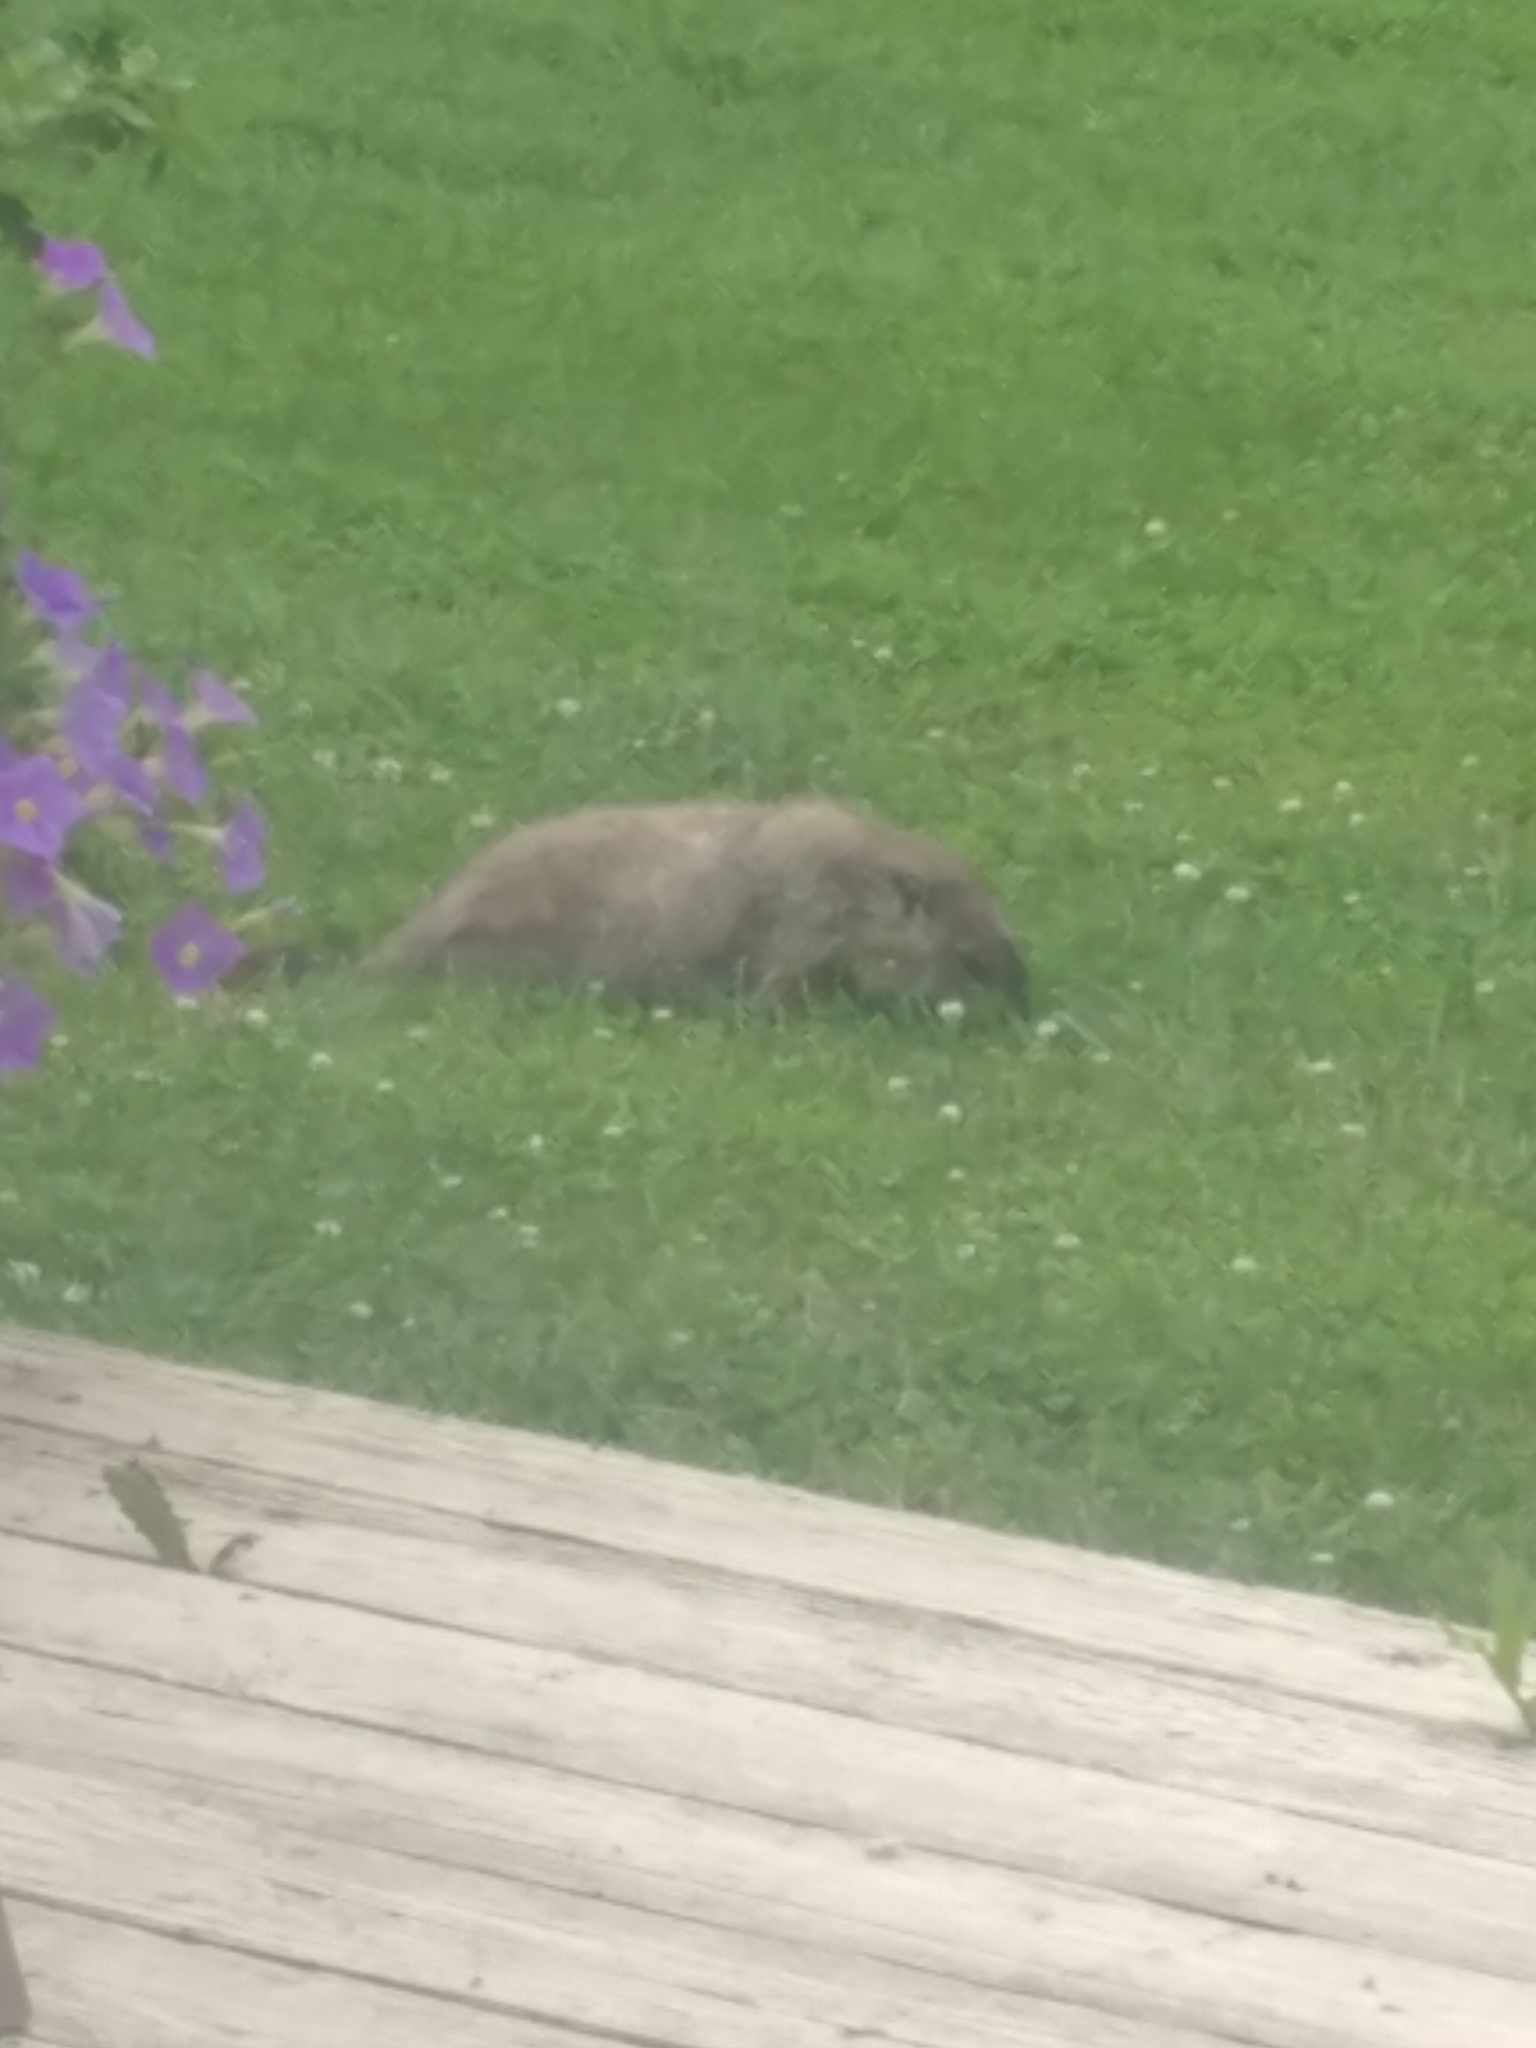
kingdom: Animalia
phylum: Chordata
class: Mammalia
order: Rodentia
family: Sciuridae
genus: Marmota
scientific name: Marmota monax
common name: Groundhog
